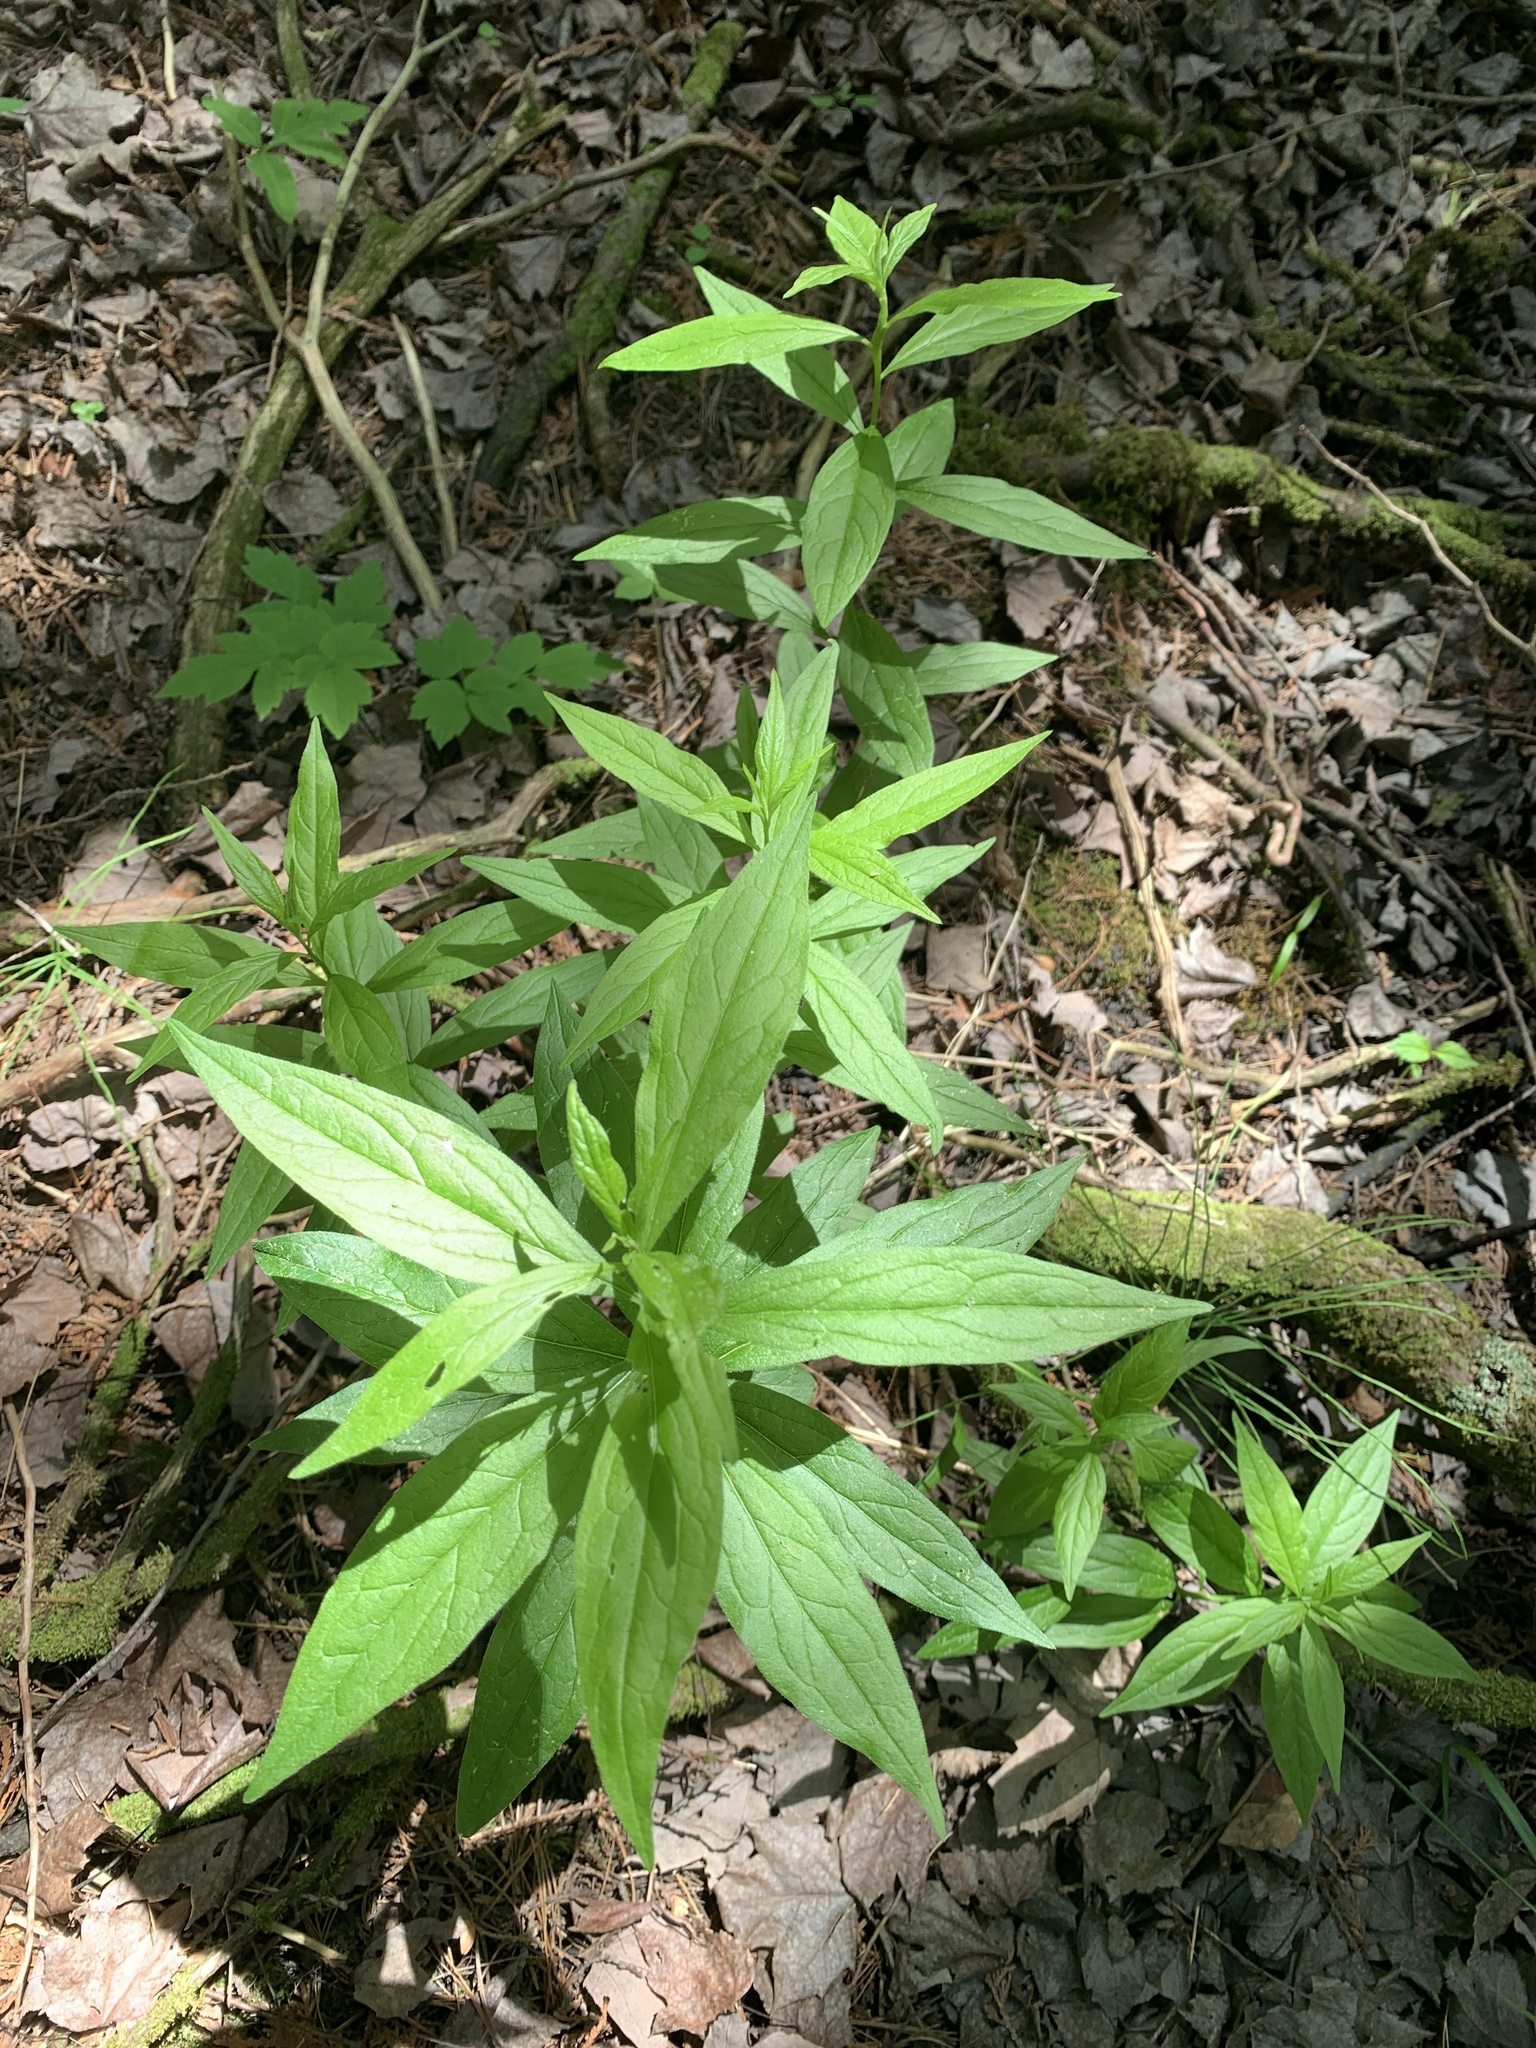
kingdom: Plantae
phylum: Tracheophyta
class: Magnoliopsida
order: Asterales
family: Asteraceae
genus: Doellingeria
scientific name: Doellingeria umbellata
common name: Flat-top white aster
